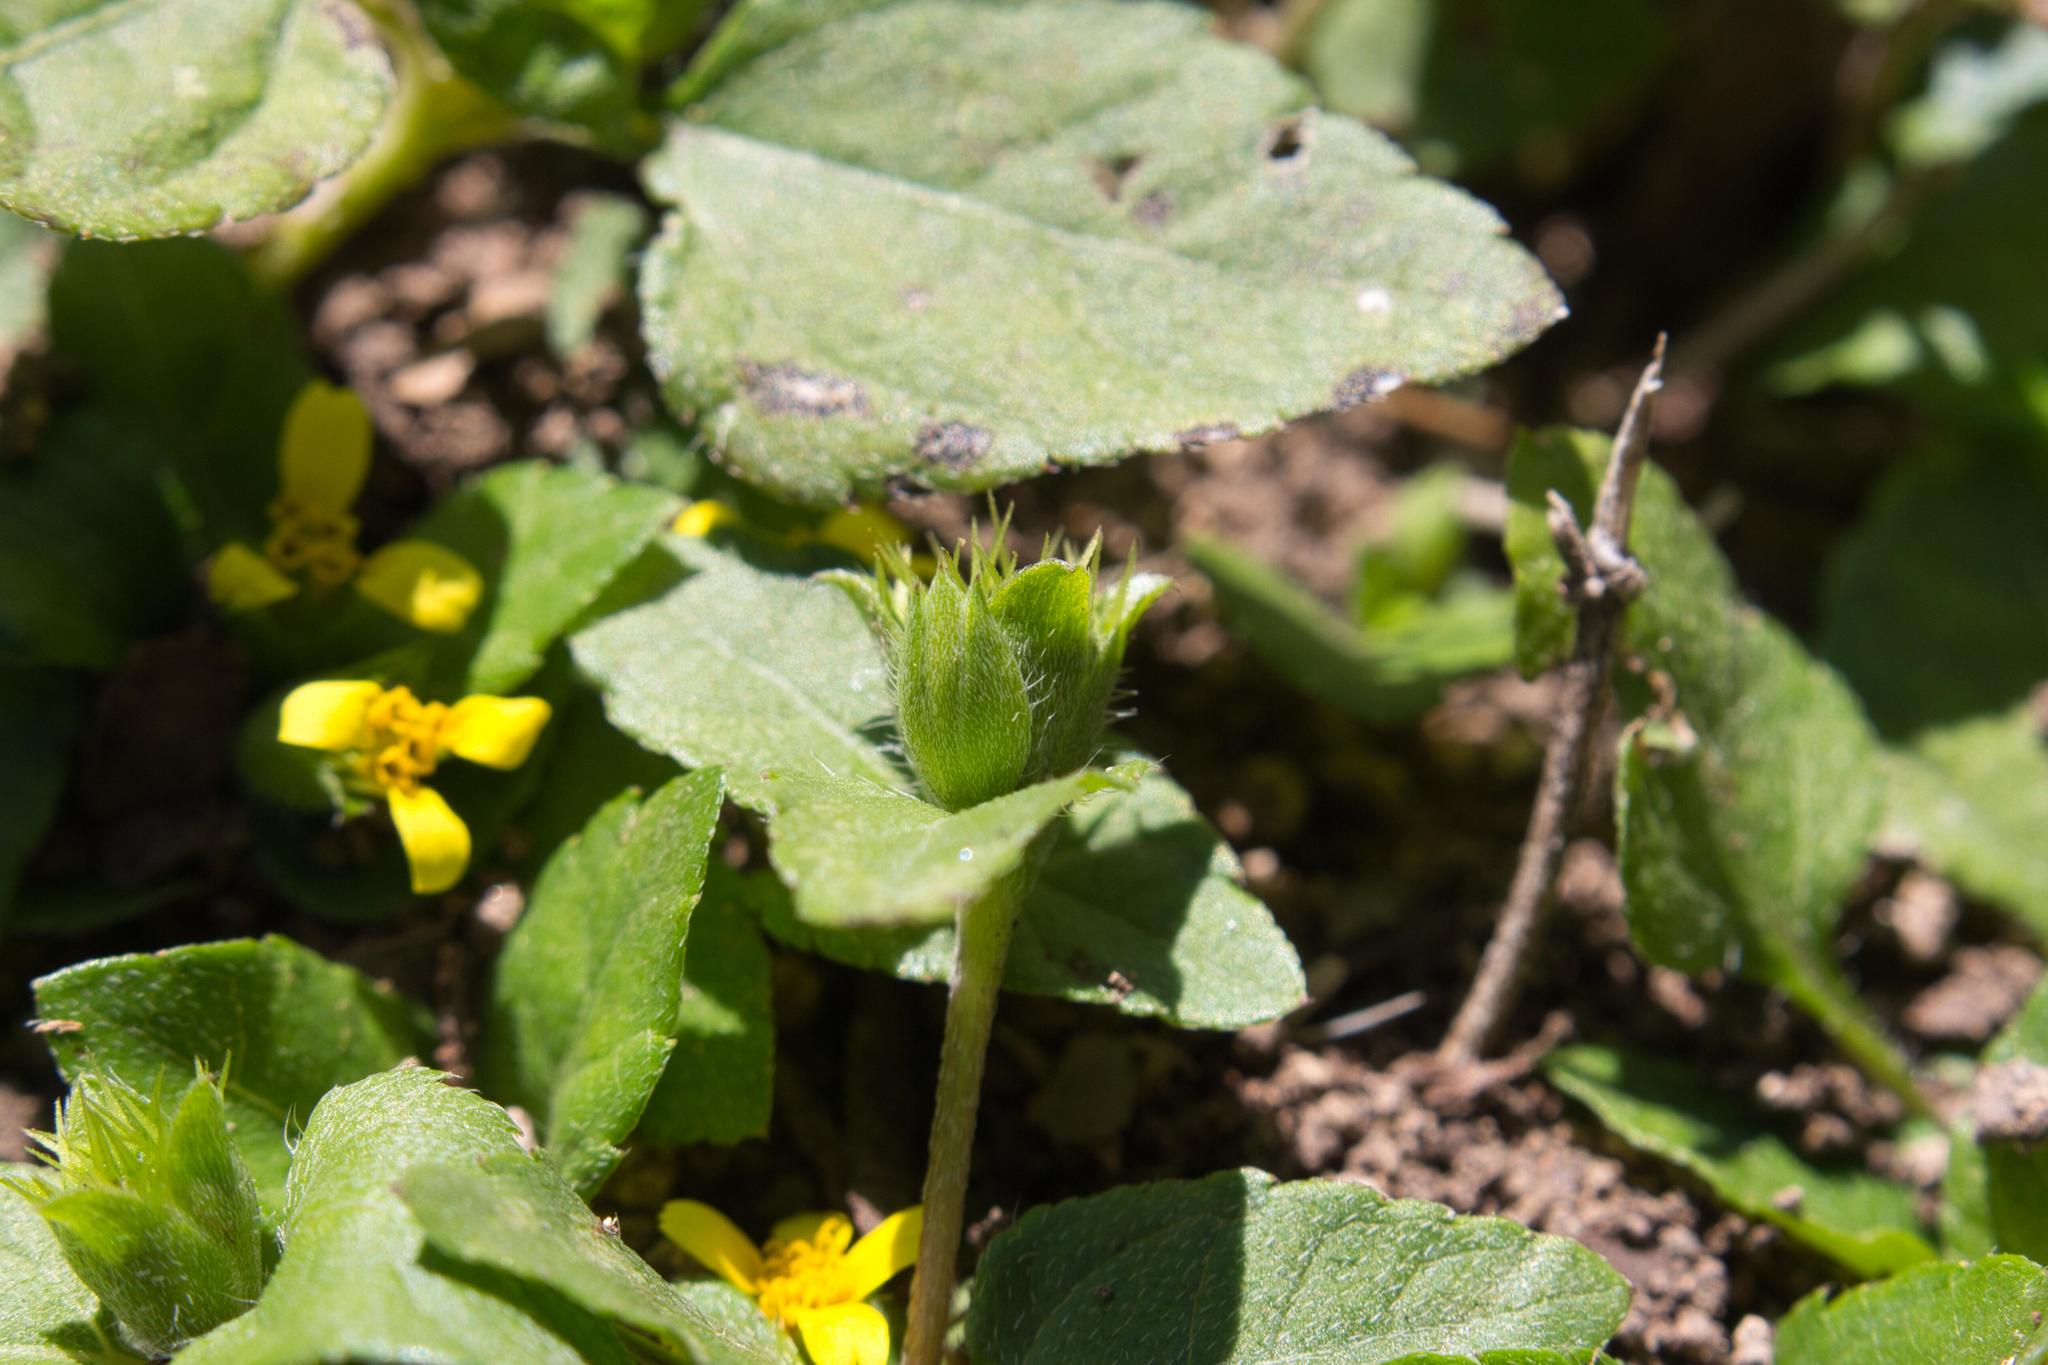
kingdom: Plantae
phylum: Tracheophyta
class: Magnoliopsida
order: Asterales
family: Asteraceae
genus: Calyptocarpus
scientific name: Calyptocarpus vialis
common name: Straggler daisy
